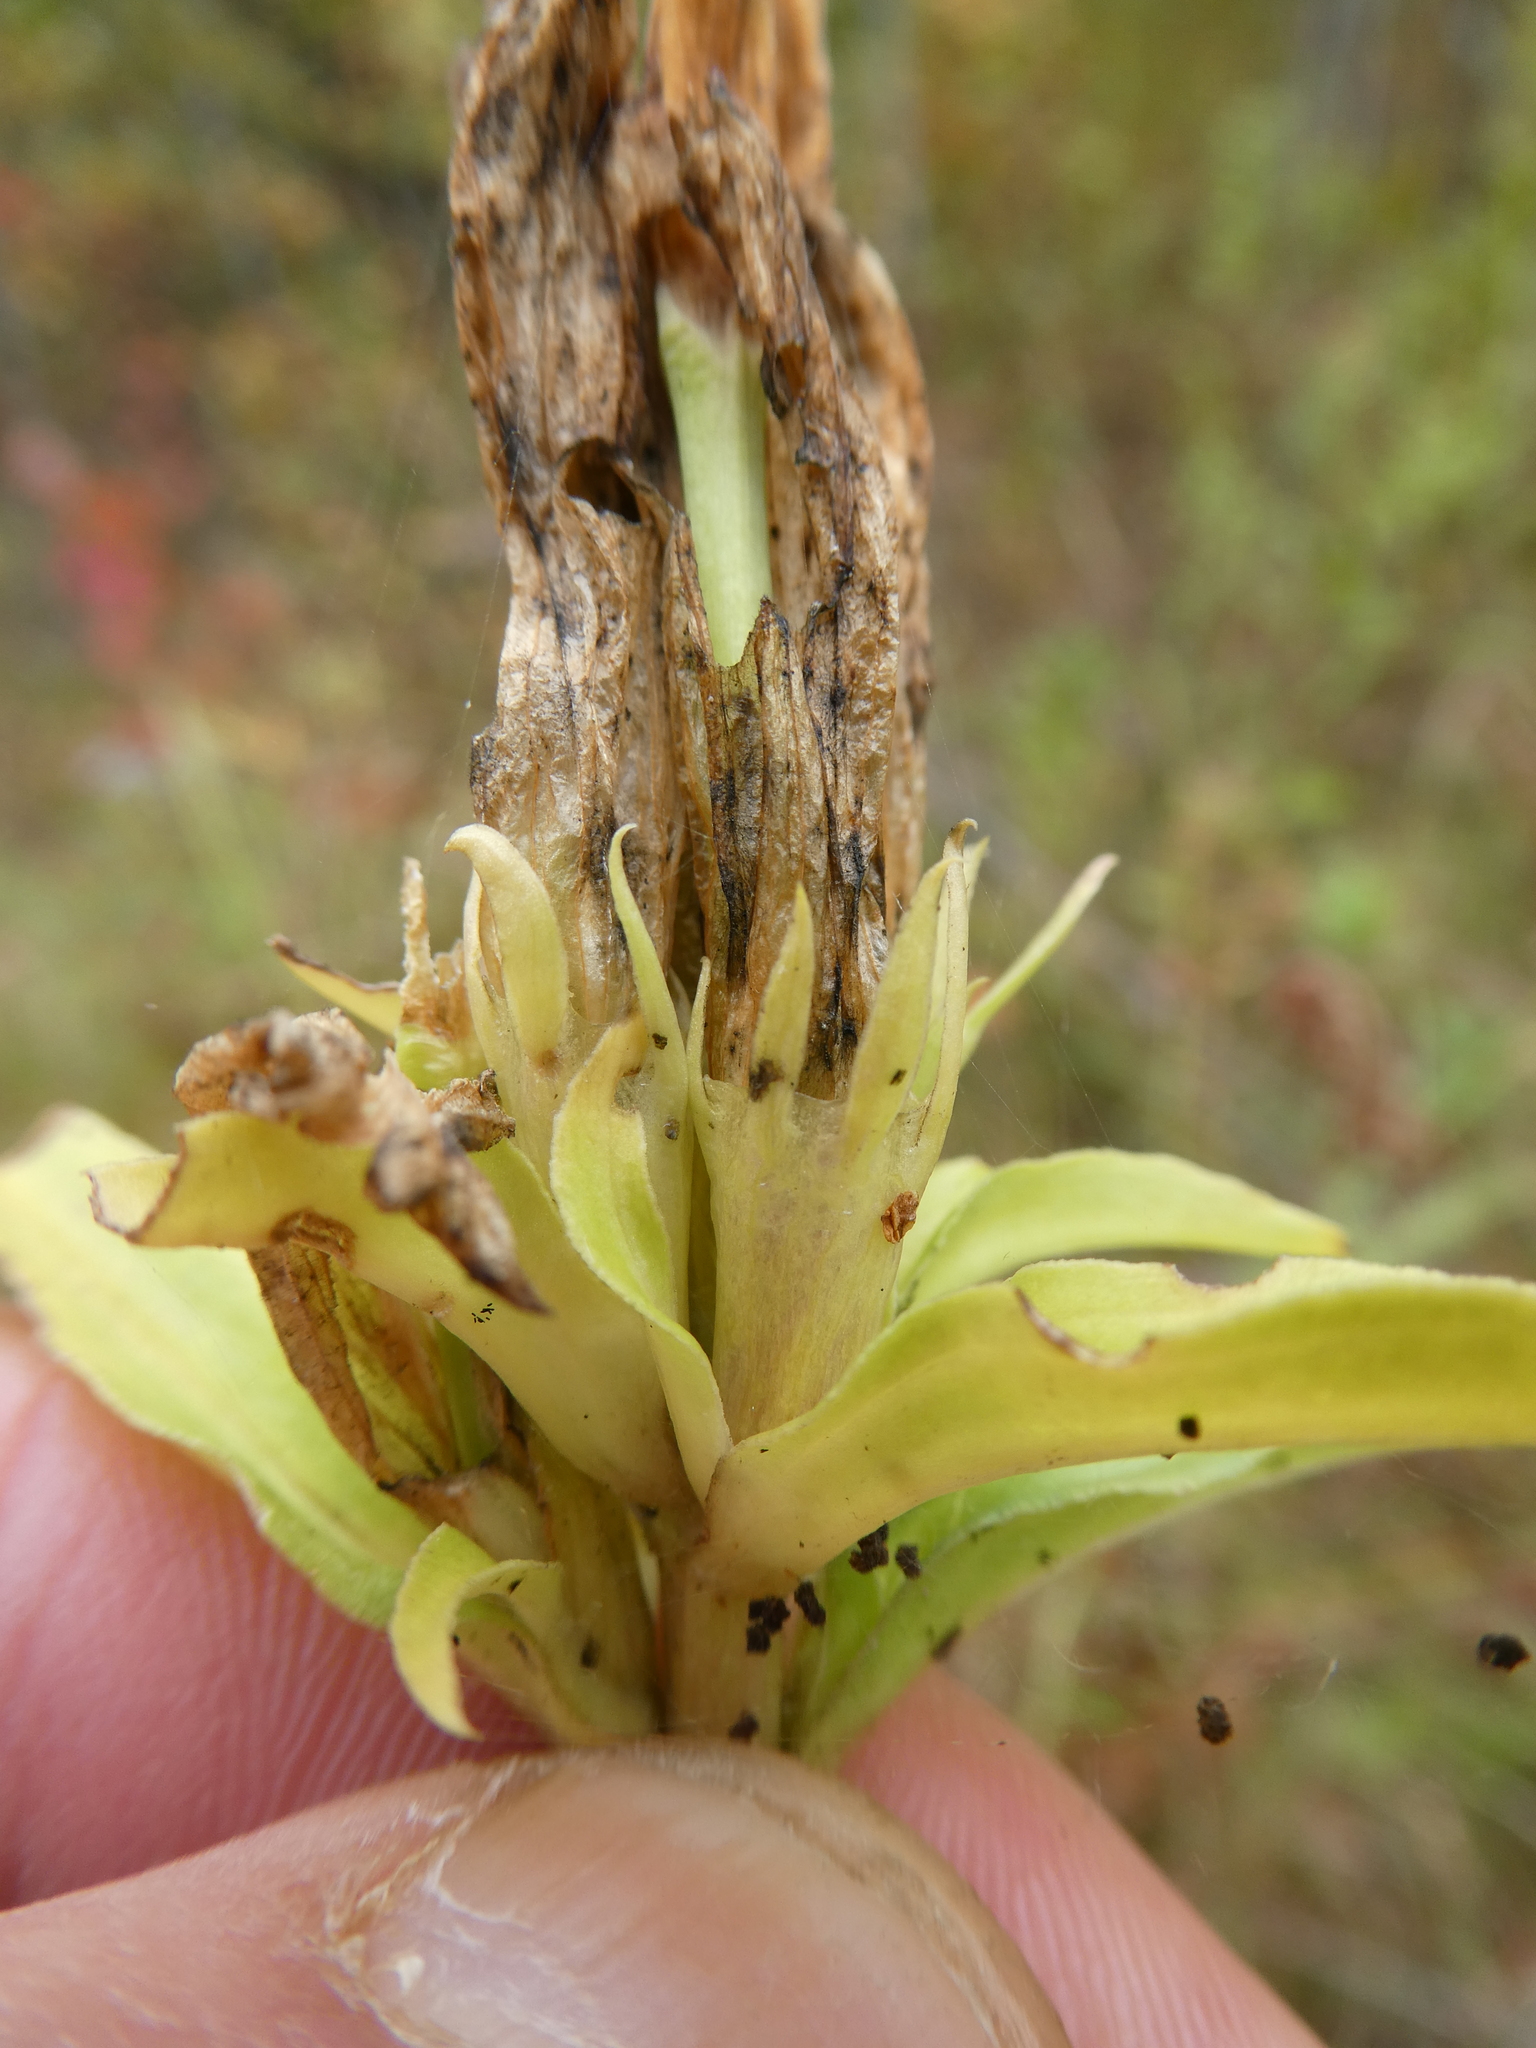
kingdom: Plantae
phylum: Tracheophyta
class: Magnoliopsida
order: Gentianales
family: Gentianaceae
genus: Gentiana
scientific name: Gentiana linearis
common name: Bastard gentian
